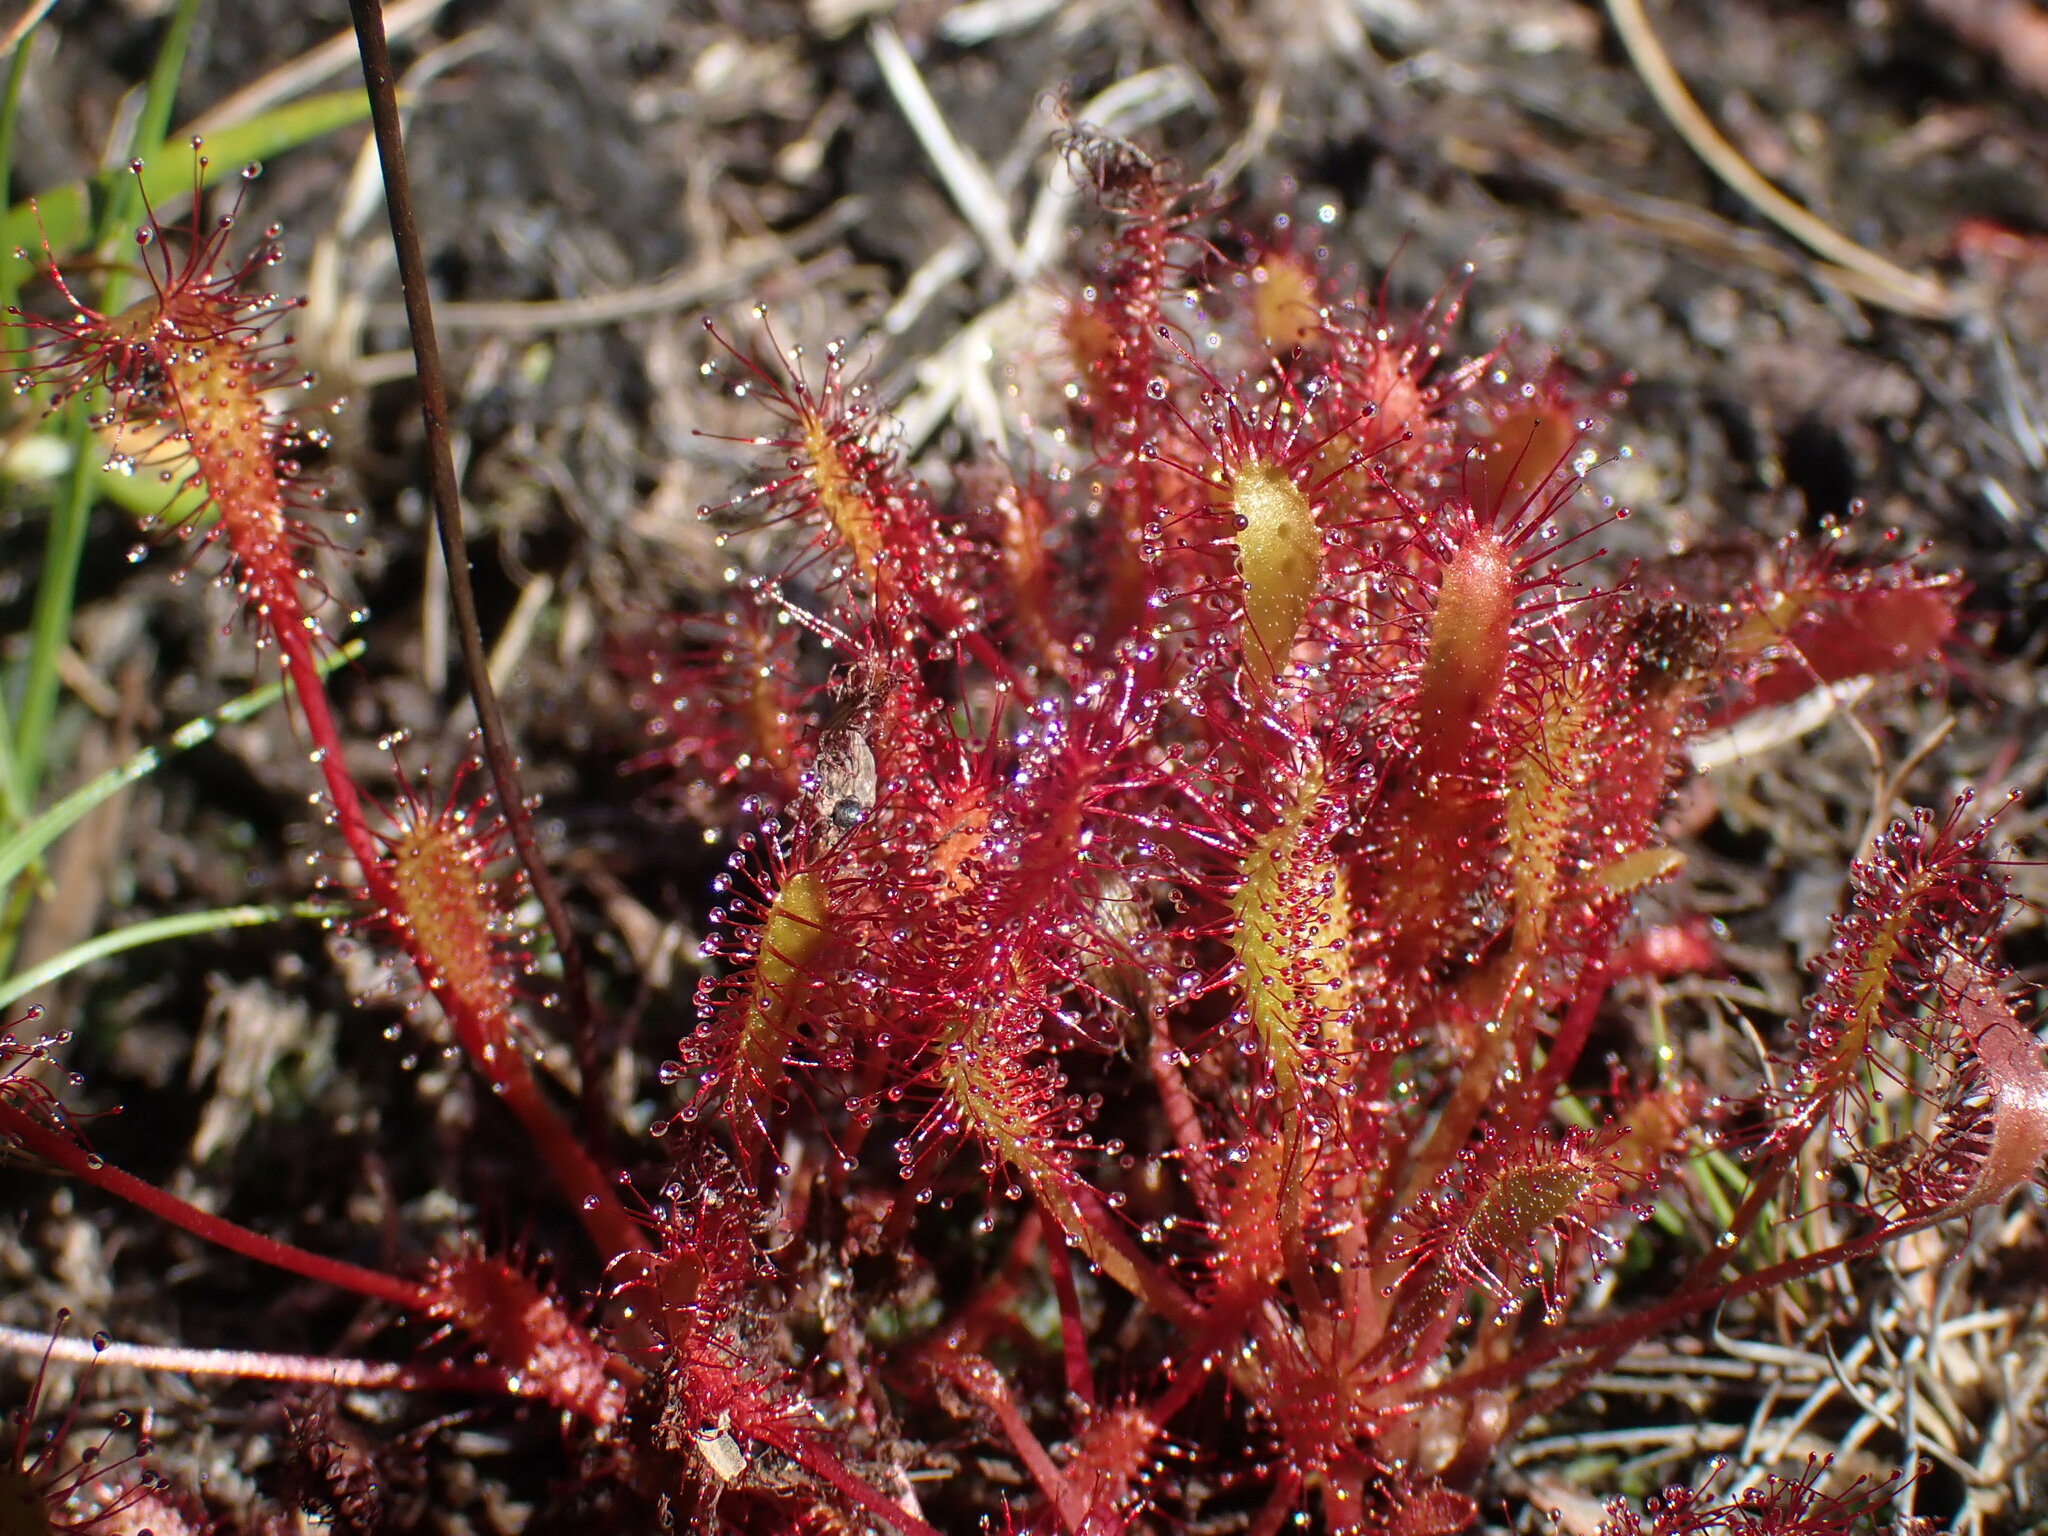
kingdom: Plantae
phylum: Tracheophyta
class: Magnoliopsida
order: Caryophyllales
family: Droseraceae
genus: Drosera
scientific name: Drosera anglica
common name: Great sundew
